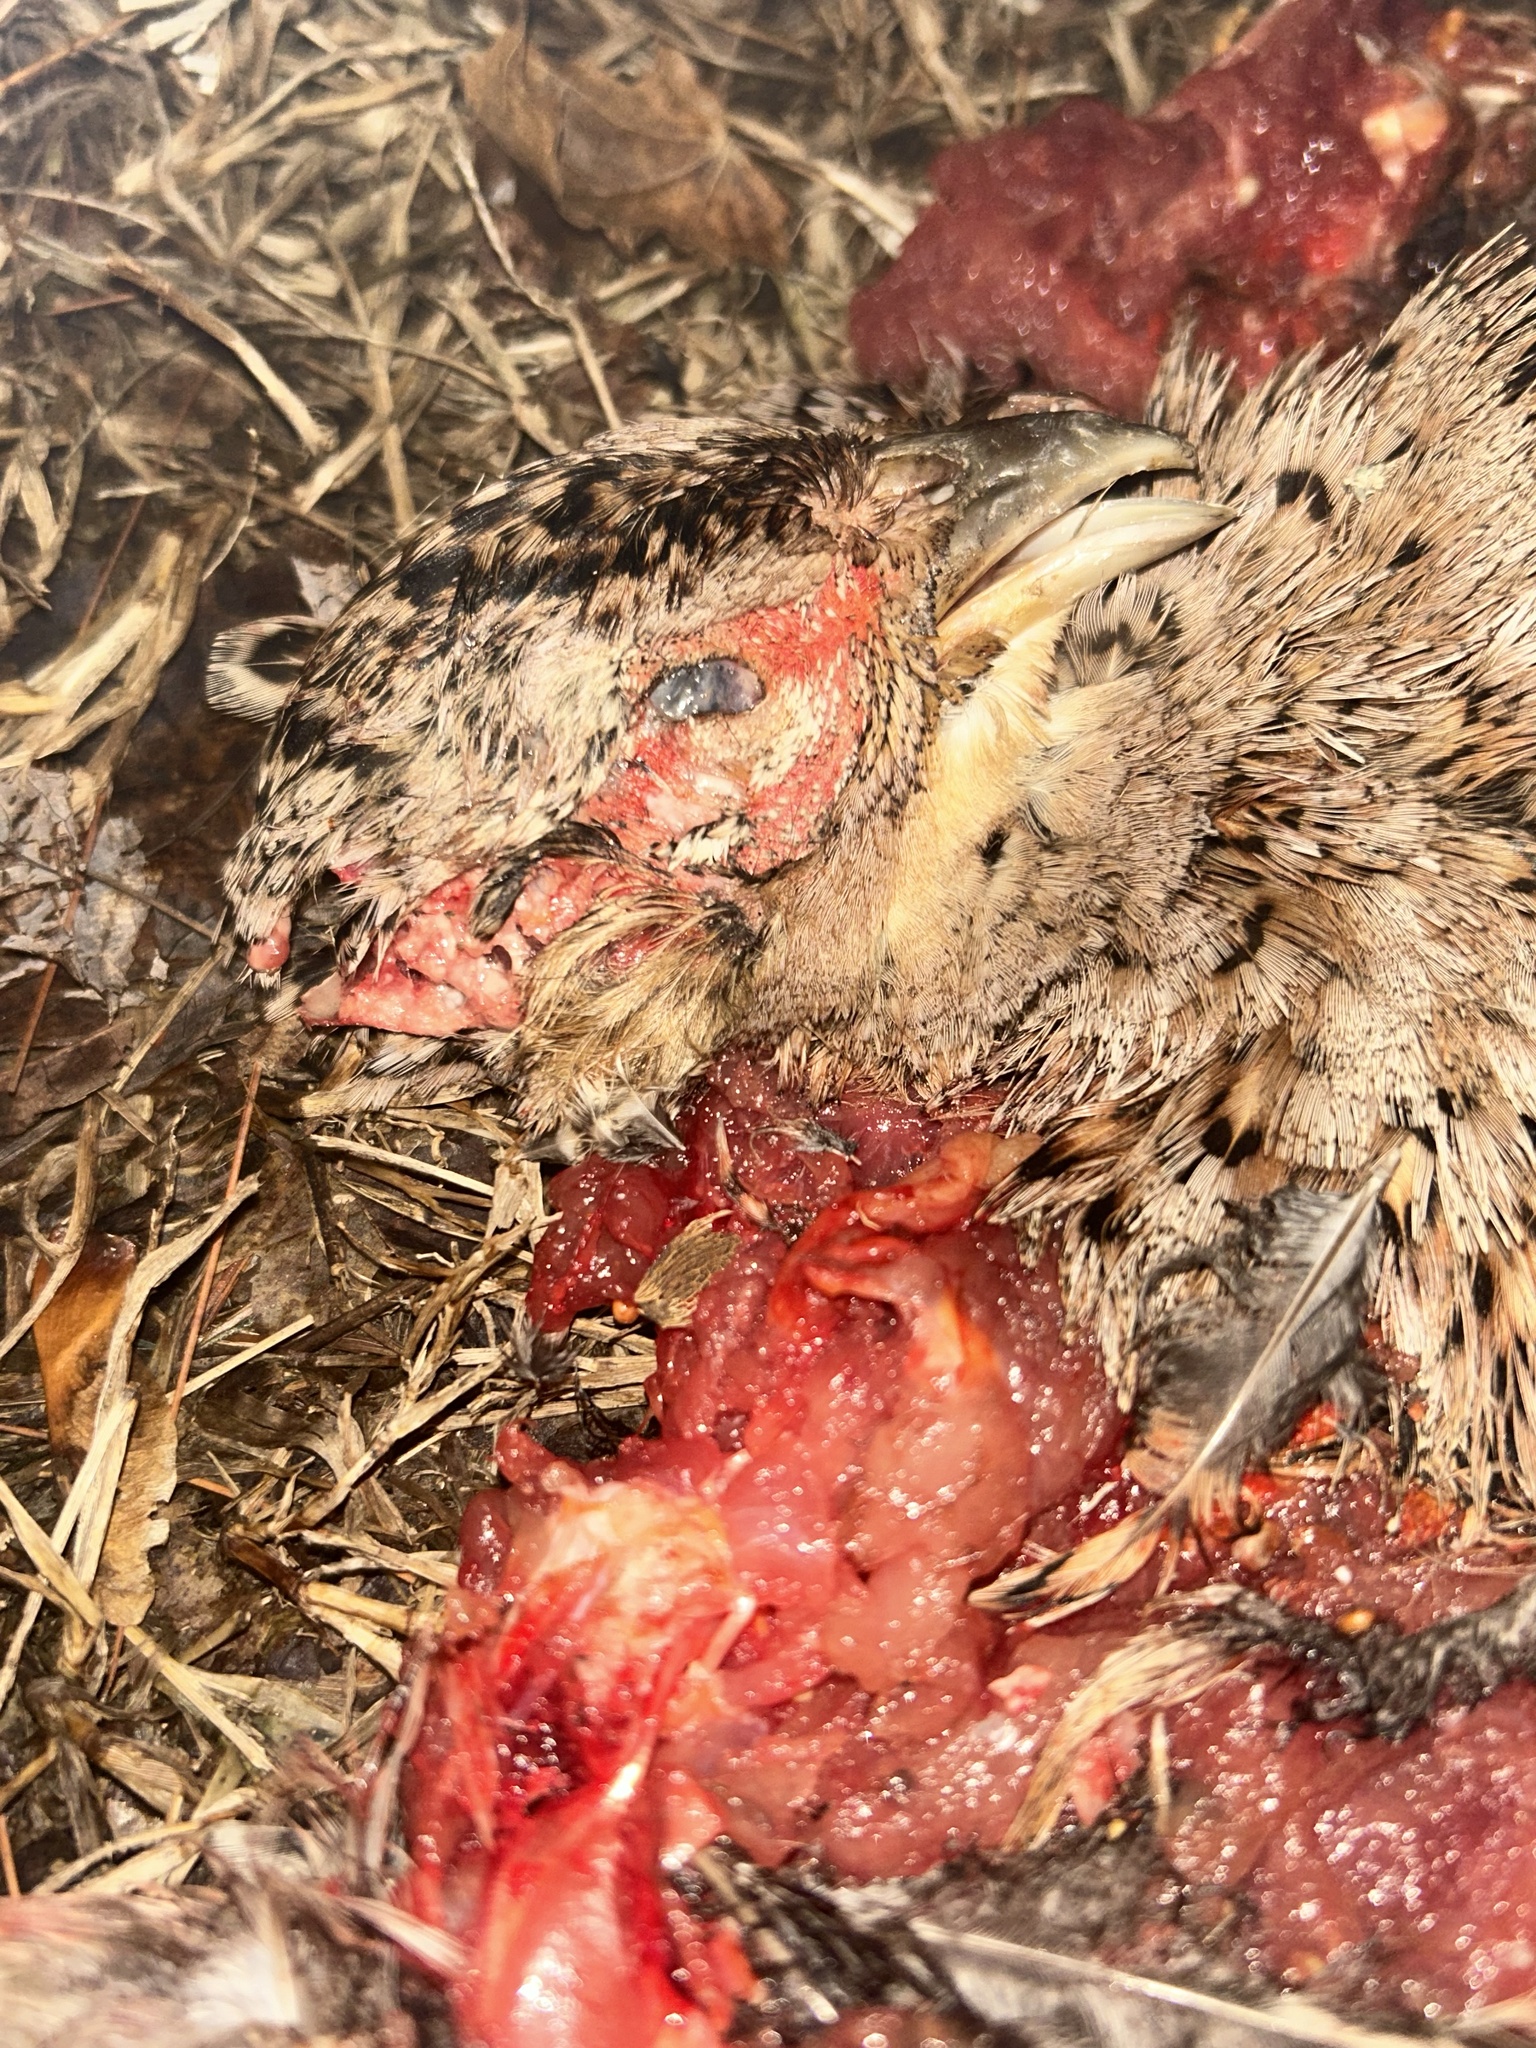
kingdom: Animalia
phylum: Chordata
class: Aves
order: Galliformes
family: Phasianidae
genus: Phasianus
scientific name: Phasianus colchicus
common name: Common pheasant
